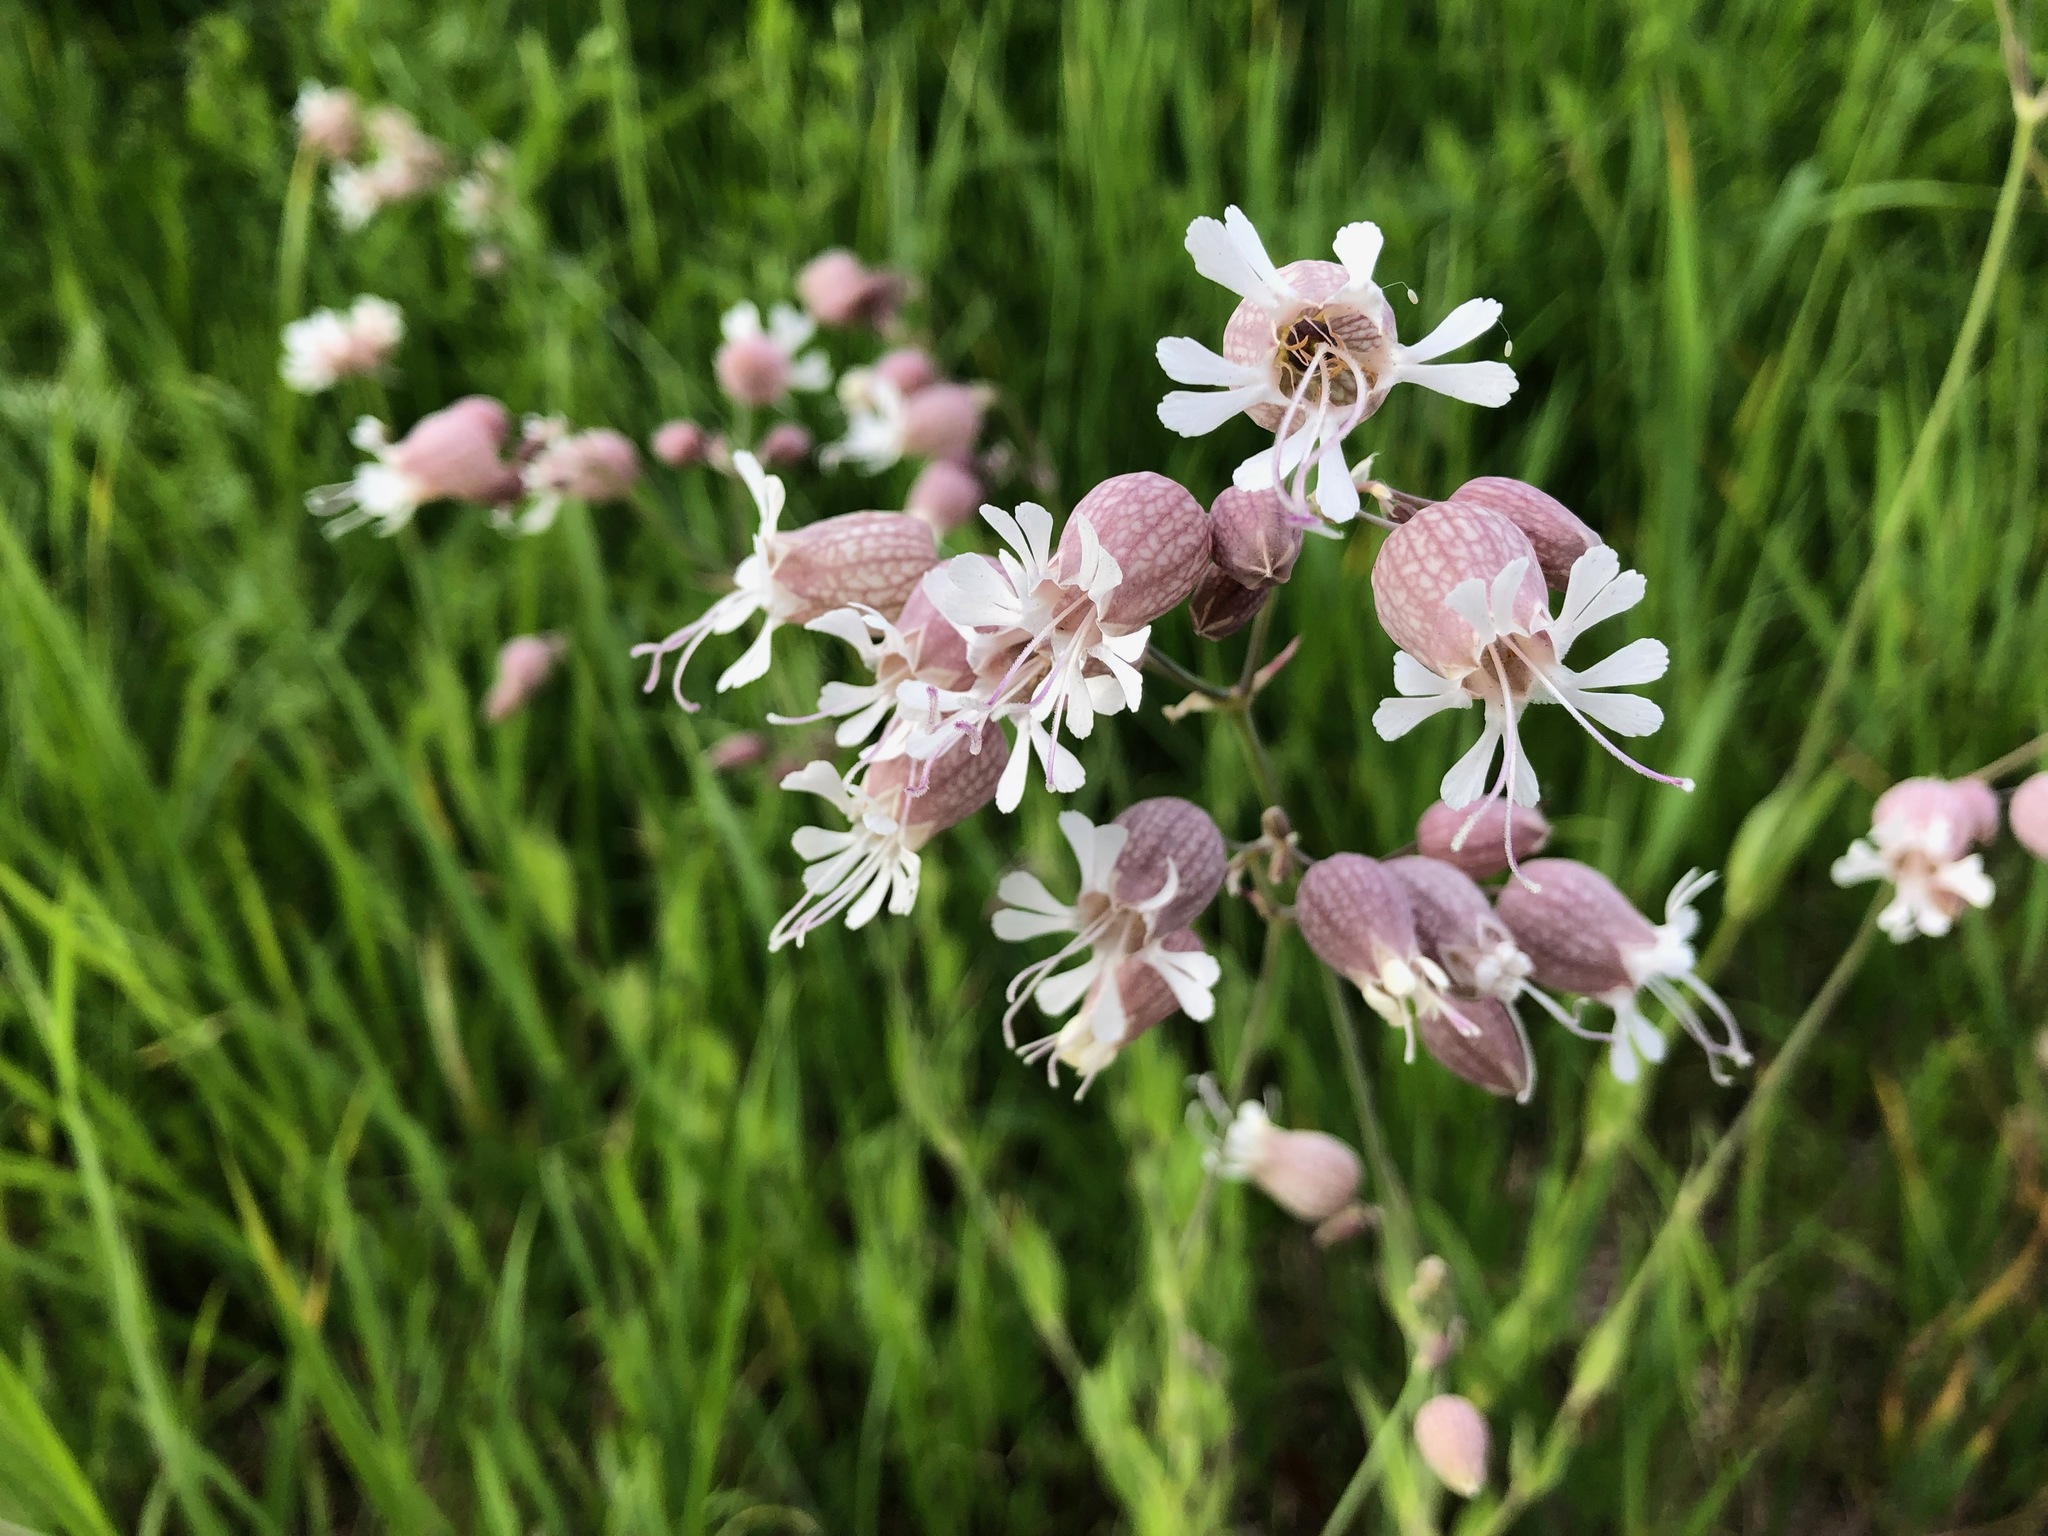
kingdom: Plantae
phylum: Tracheophyta
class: Magnoliopsida
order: Caryophyllales
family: Caryophyllaceae
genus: Silene
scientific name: Silene vulgaris
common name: Bladder campion
